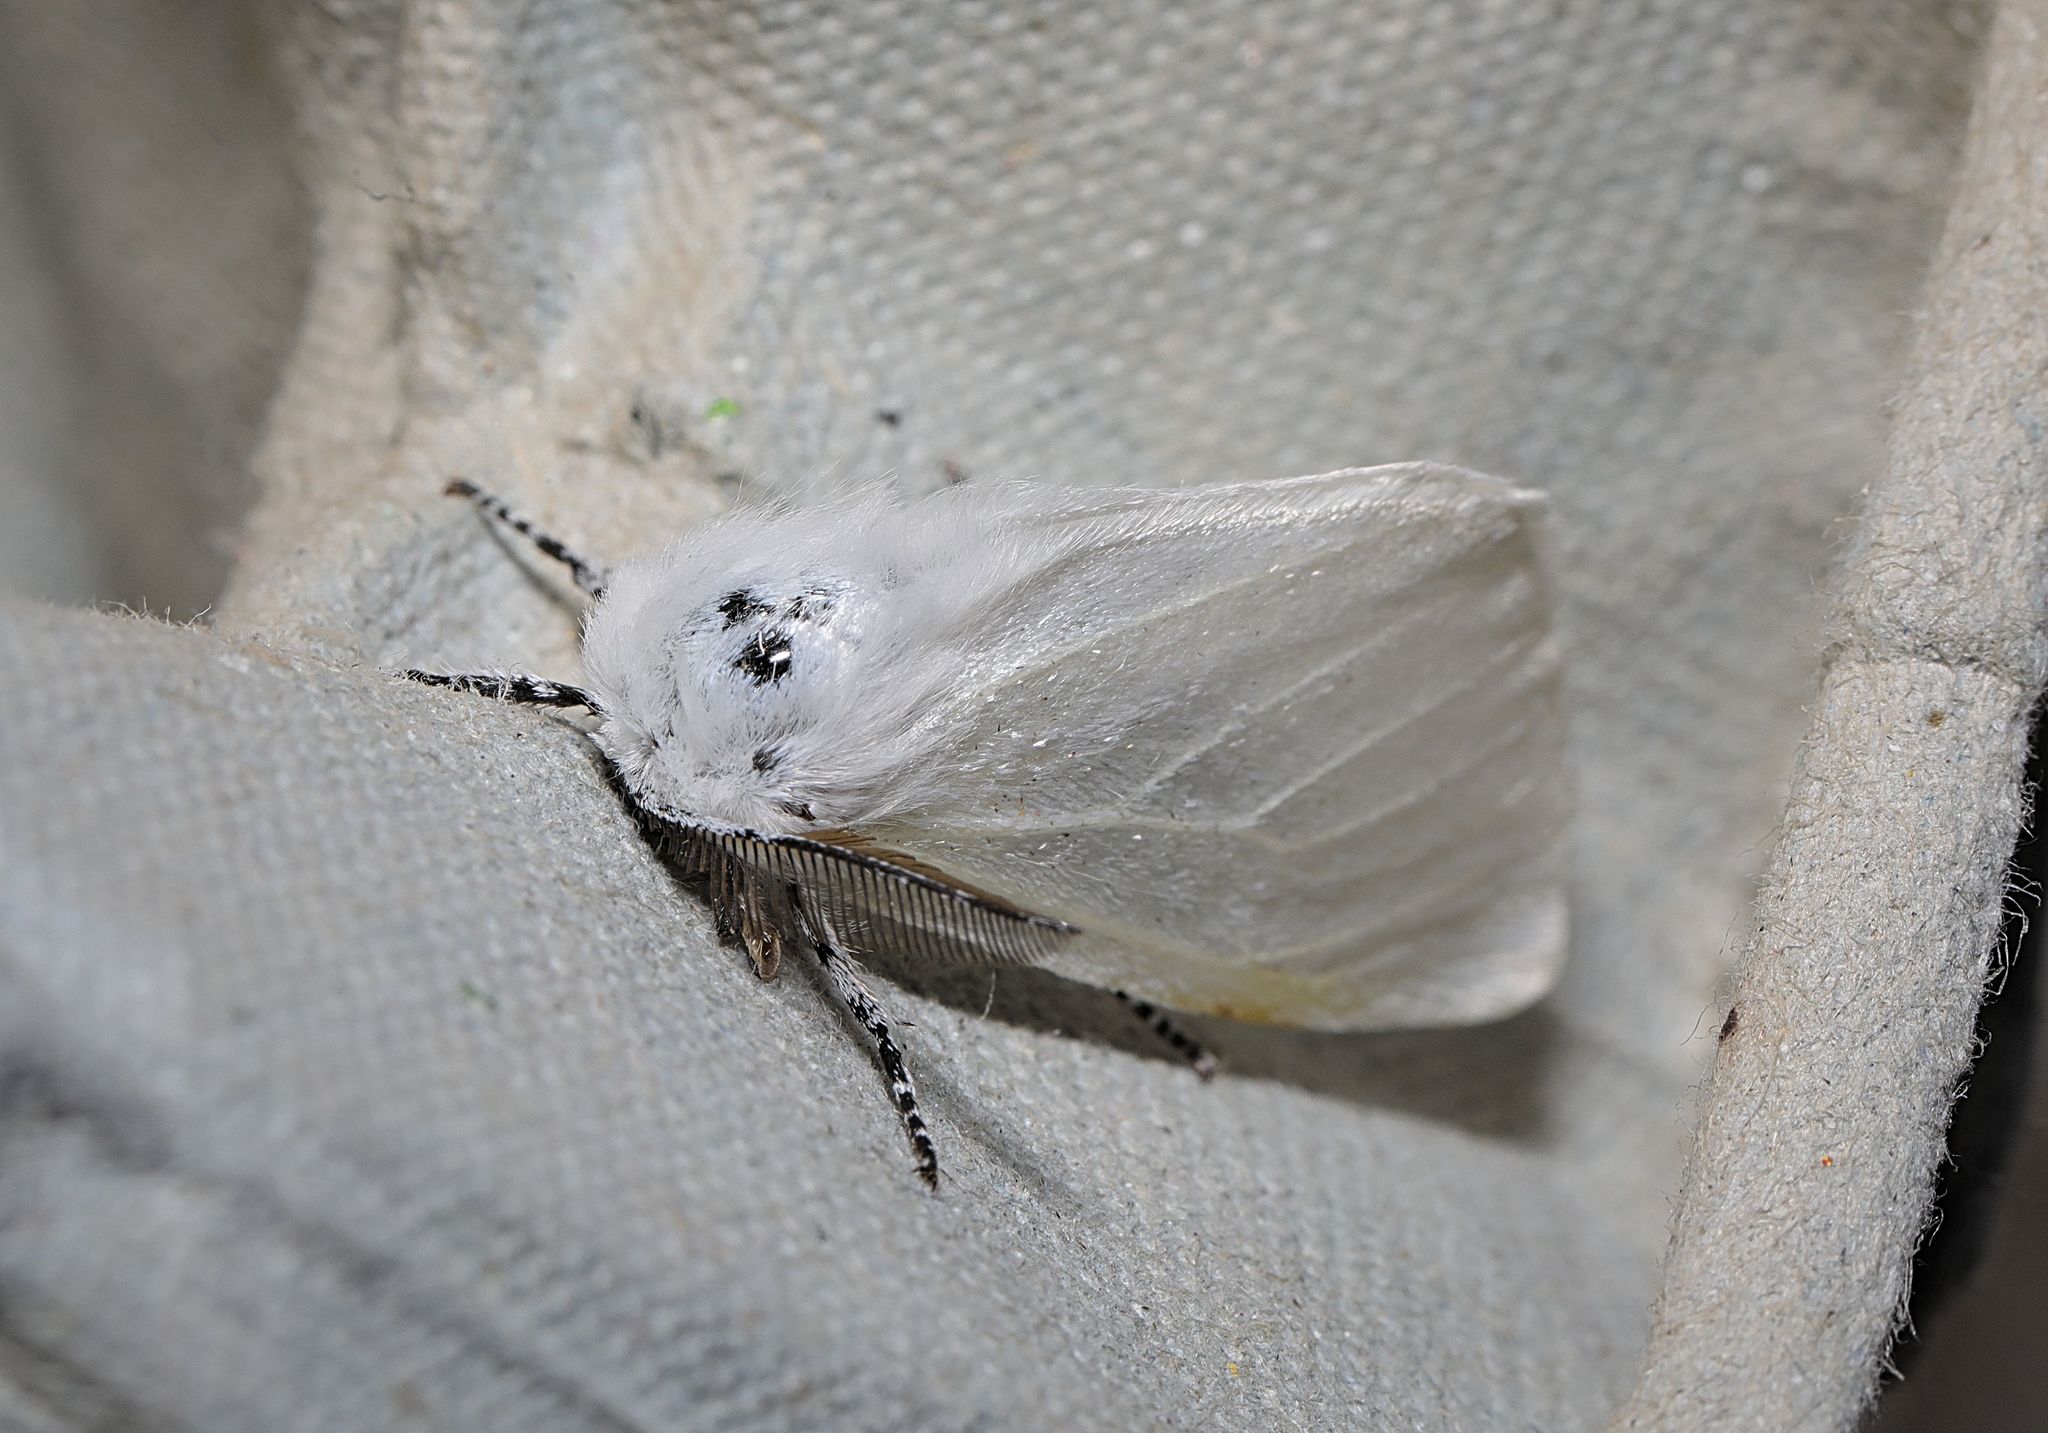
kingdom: Animalia
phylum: Arthropoda
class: Insecta
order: Lepidoptera
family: Erebidae
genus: Leucoma
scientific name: Leucoma salicis
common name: White satin moth
